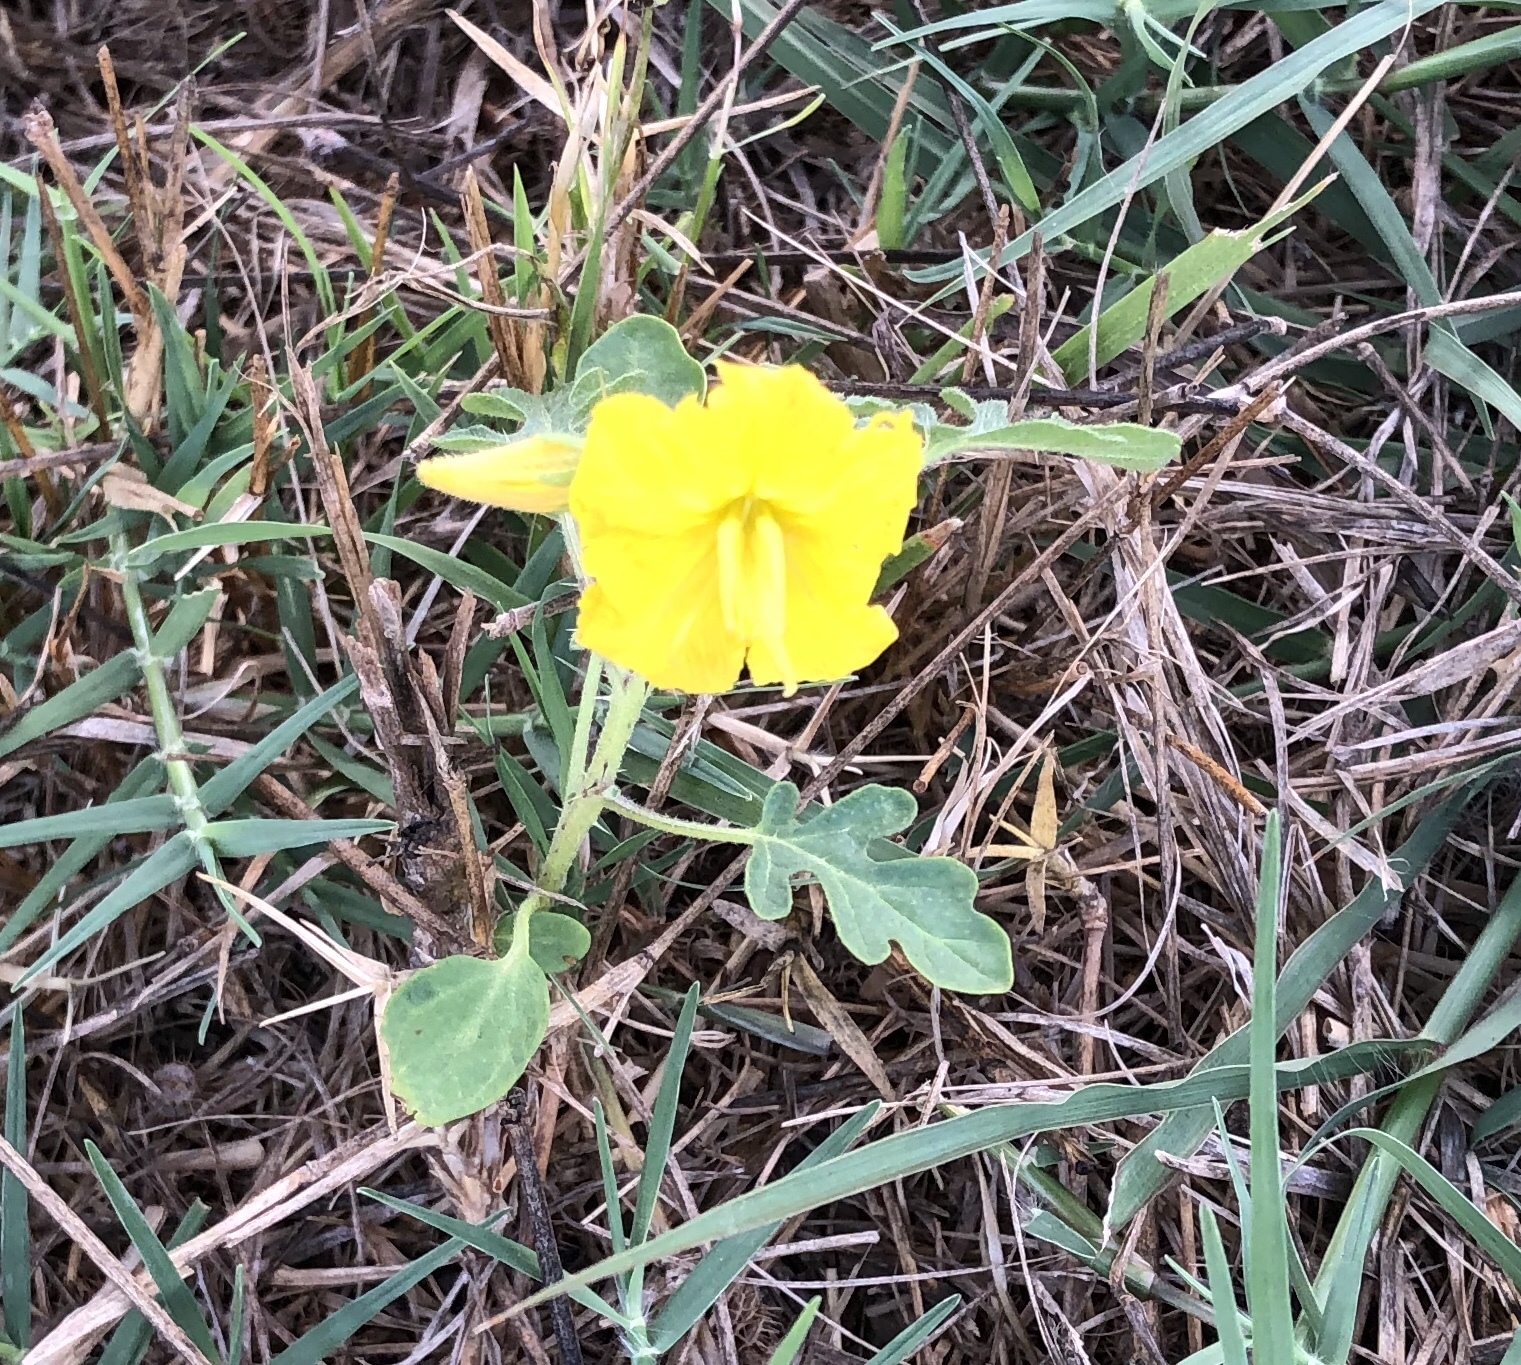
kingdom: Plantae
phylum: Tracheophyta
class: Magnoliopsida
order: Solanales
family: Solanaceae
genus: Solanum
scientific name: Solanum angustifolium
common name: Buffalobur nightshade
